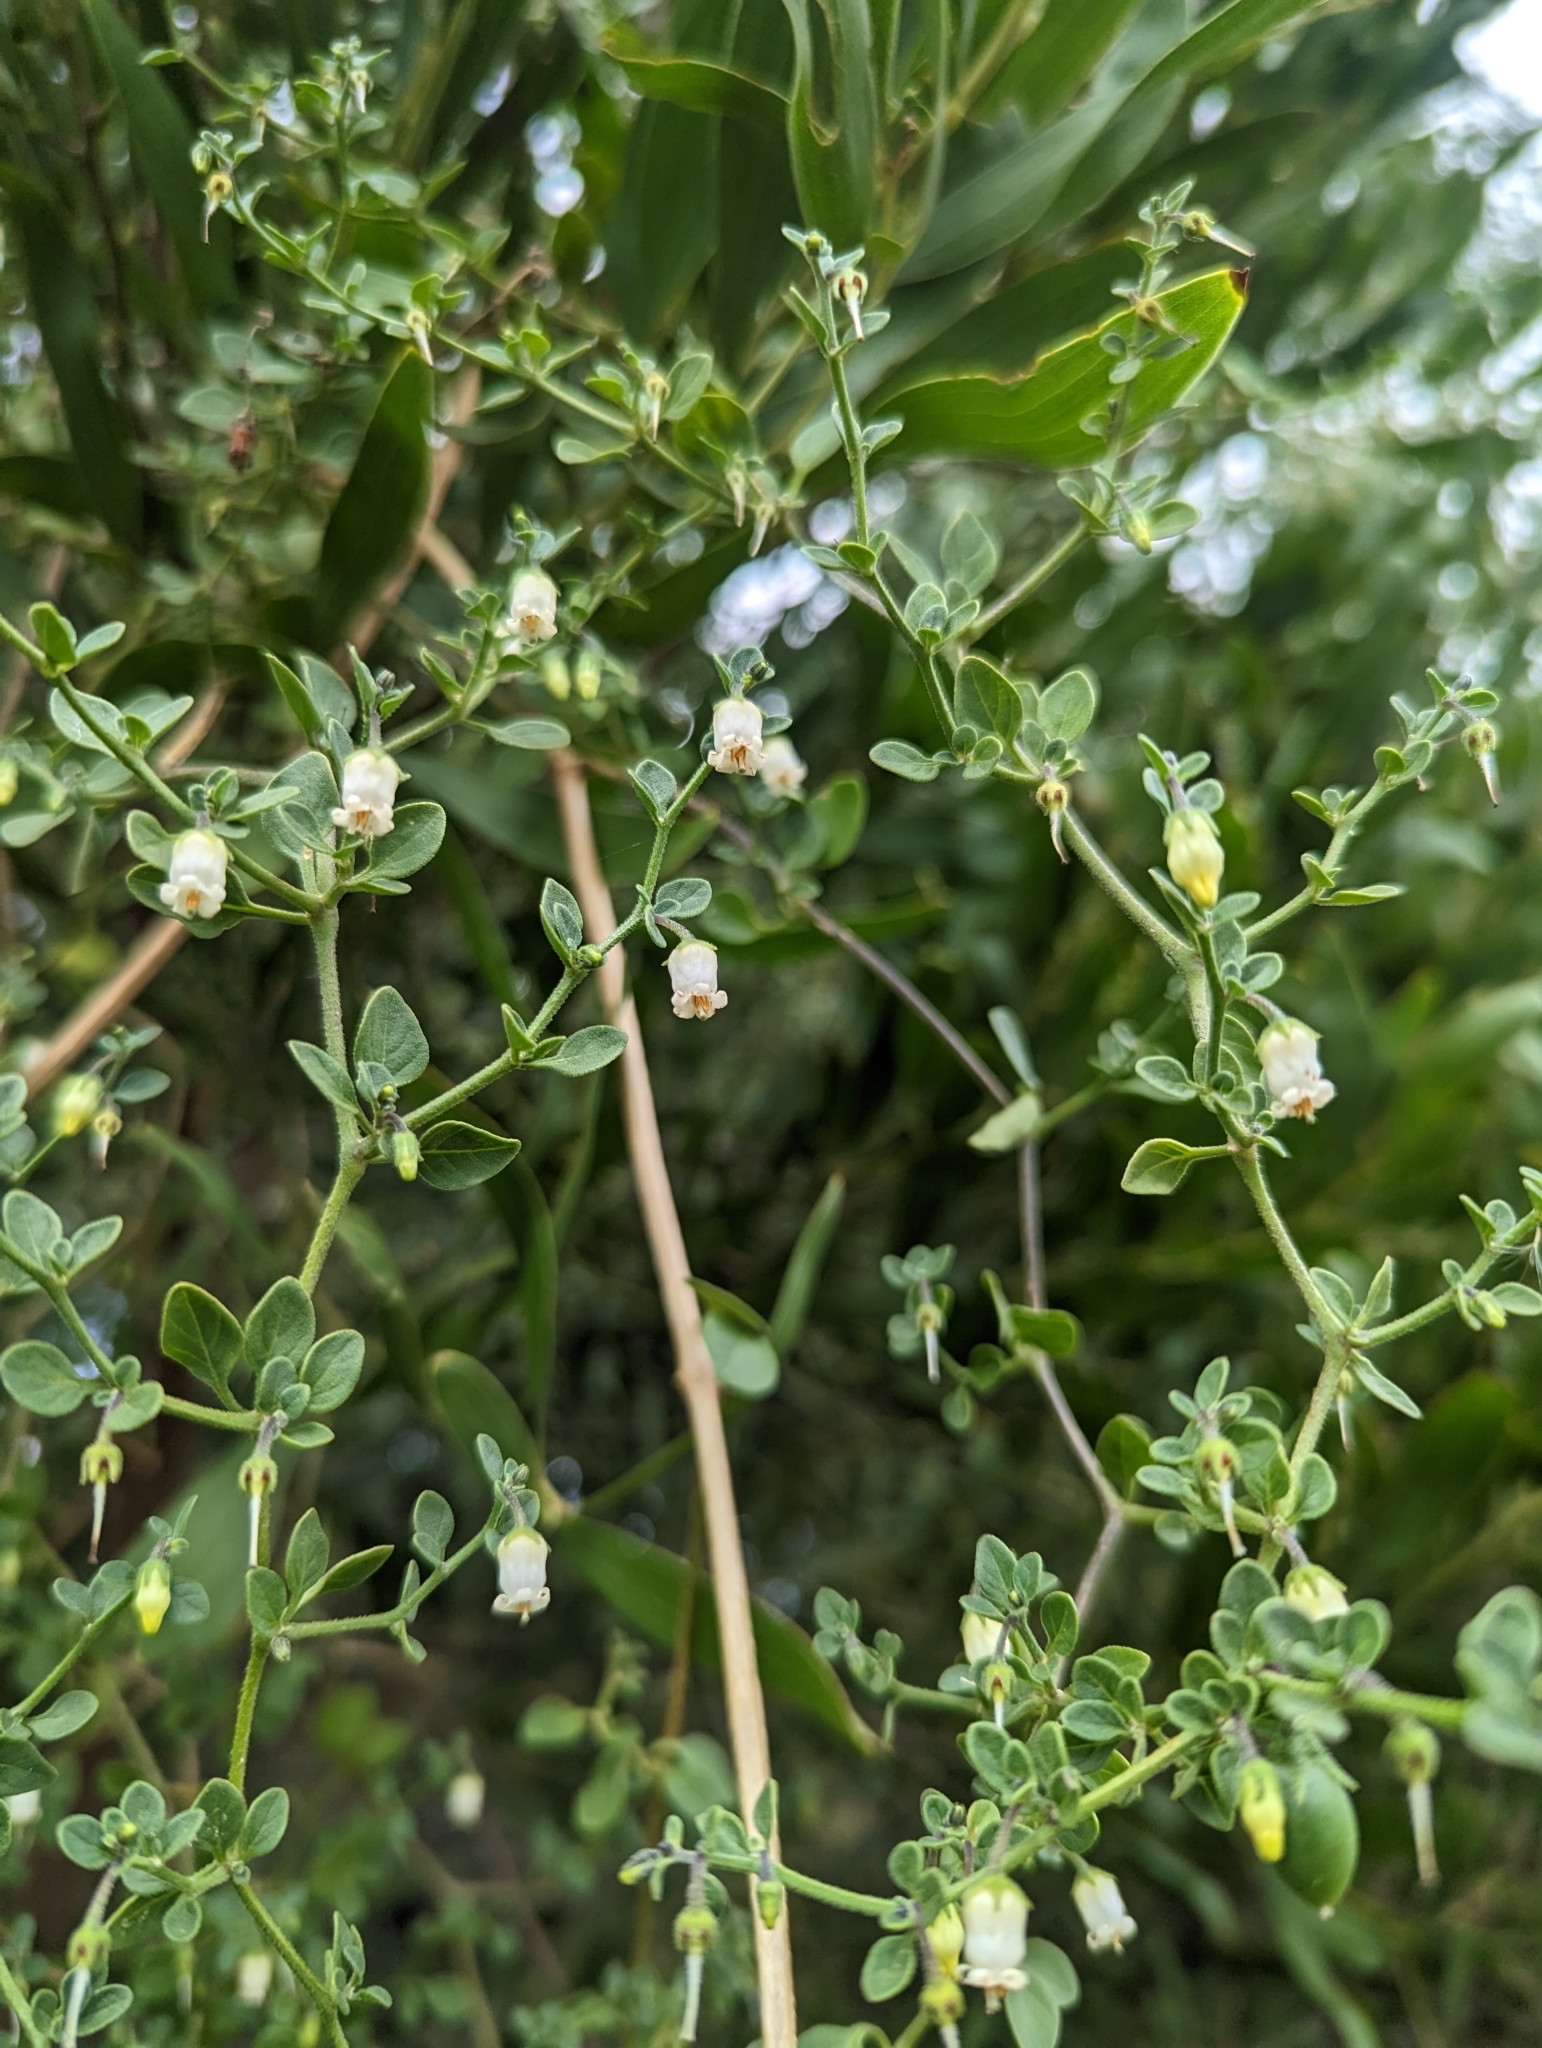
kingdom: Plantae
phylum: Tracheophyta
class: Magnoliopsida
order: Solanales
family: Solanaceae
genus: Salpichroa
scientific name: Salpichroa origanifolia
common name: Lily-of-the-valley-vine
